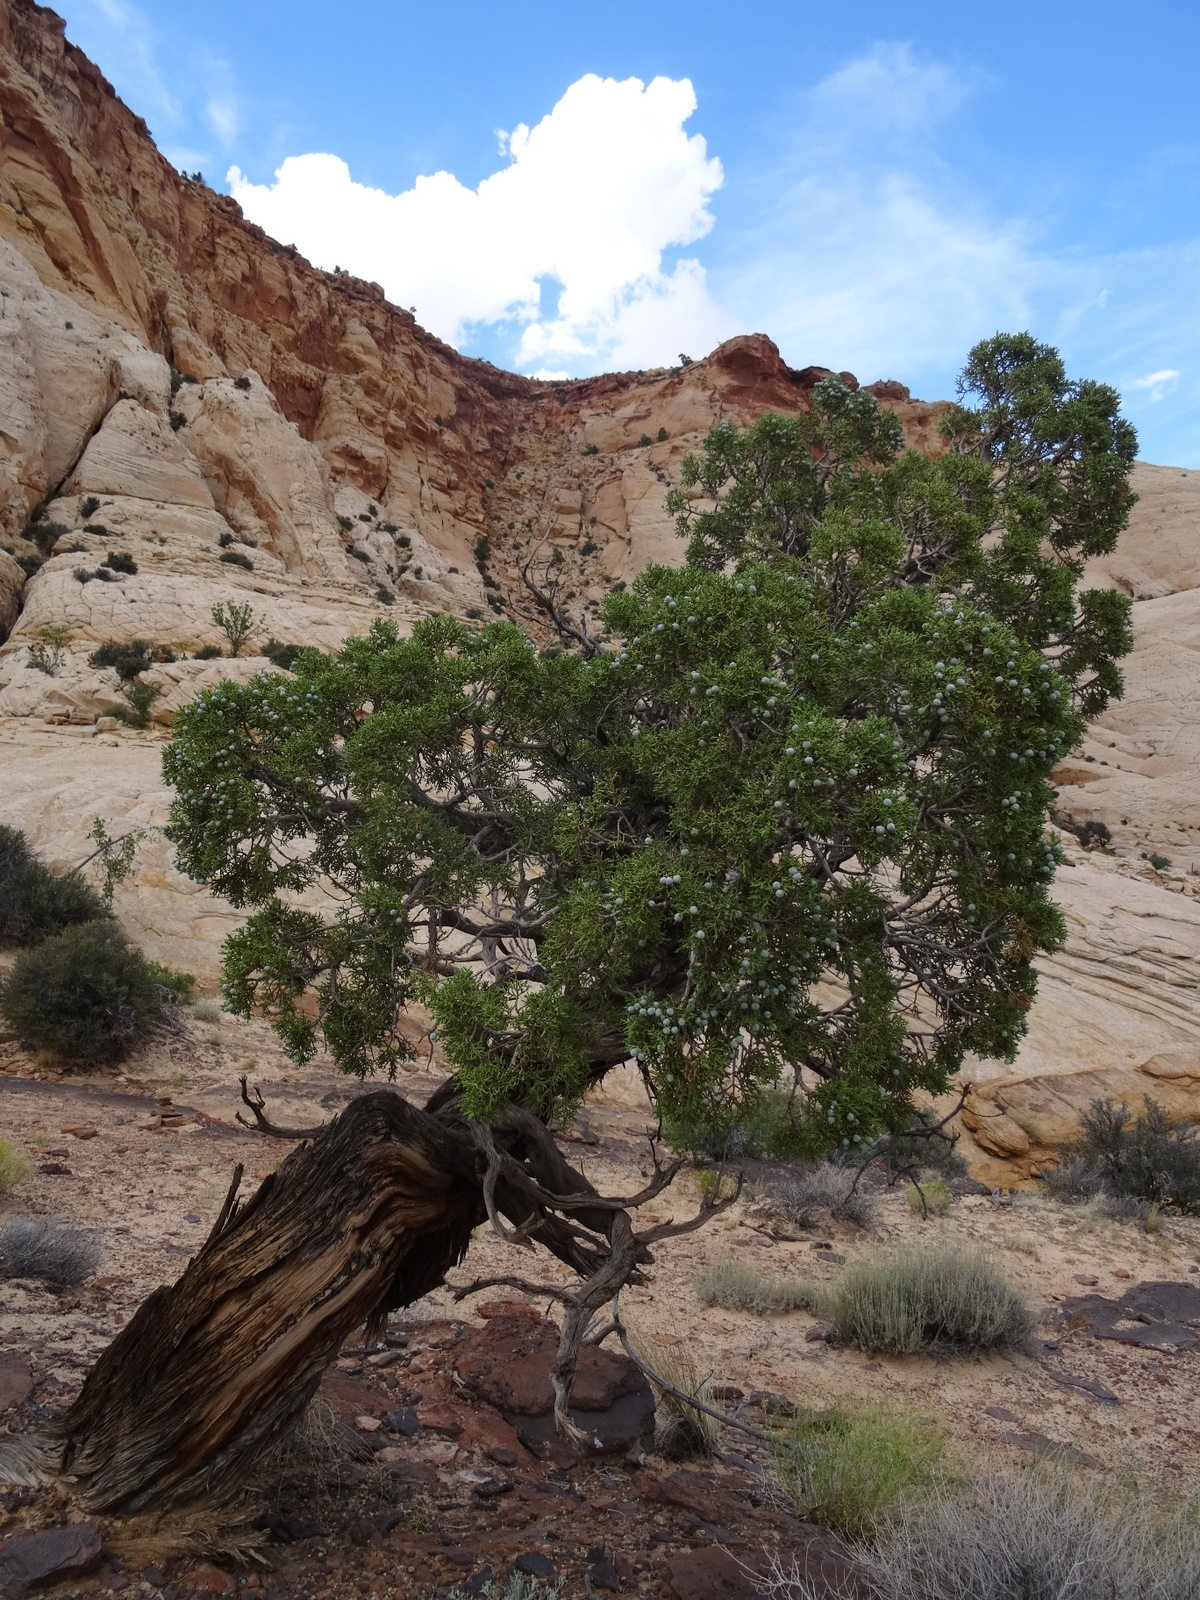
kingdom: Plantae
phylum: Tracheophyta
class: Pinopsida
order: Pinales
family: Cupressaceae
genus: Juniperus
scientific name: Juniperus osteosperma
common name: Utah juniper
